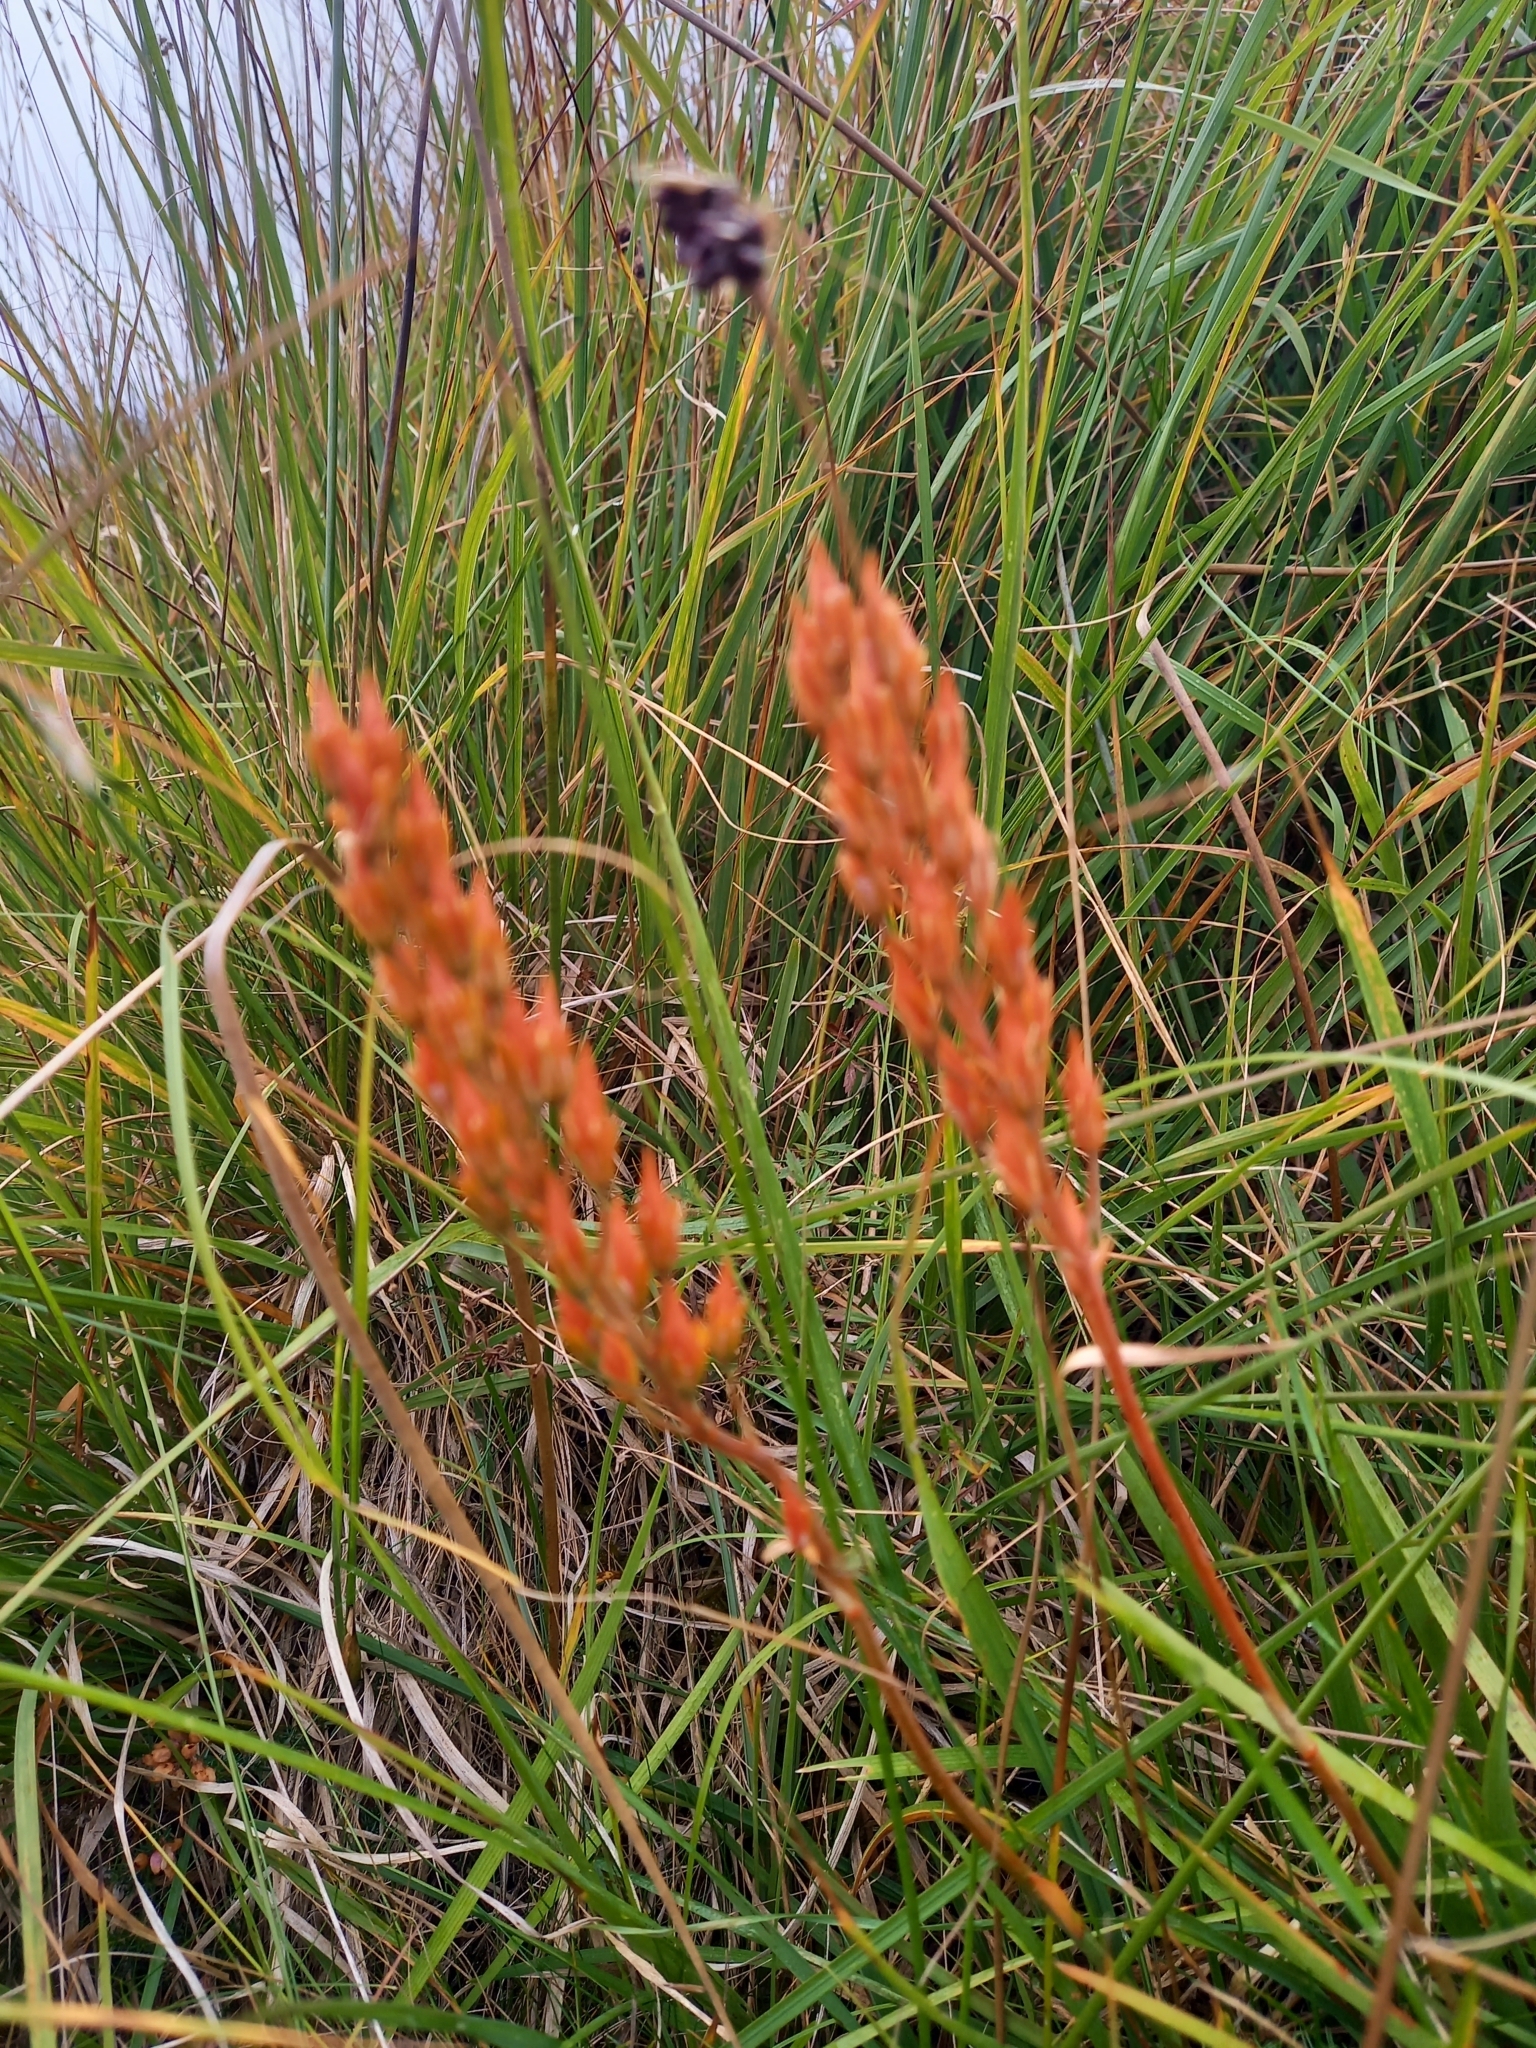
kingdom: Plantae
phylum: Tracheophyta
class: Liliopsida
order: Dioscoreales
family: Nartheciaceae
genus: Narthecium
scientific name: Narthecium ossifragum
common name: Bog asphodel
